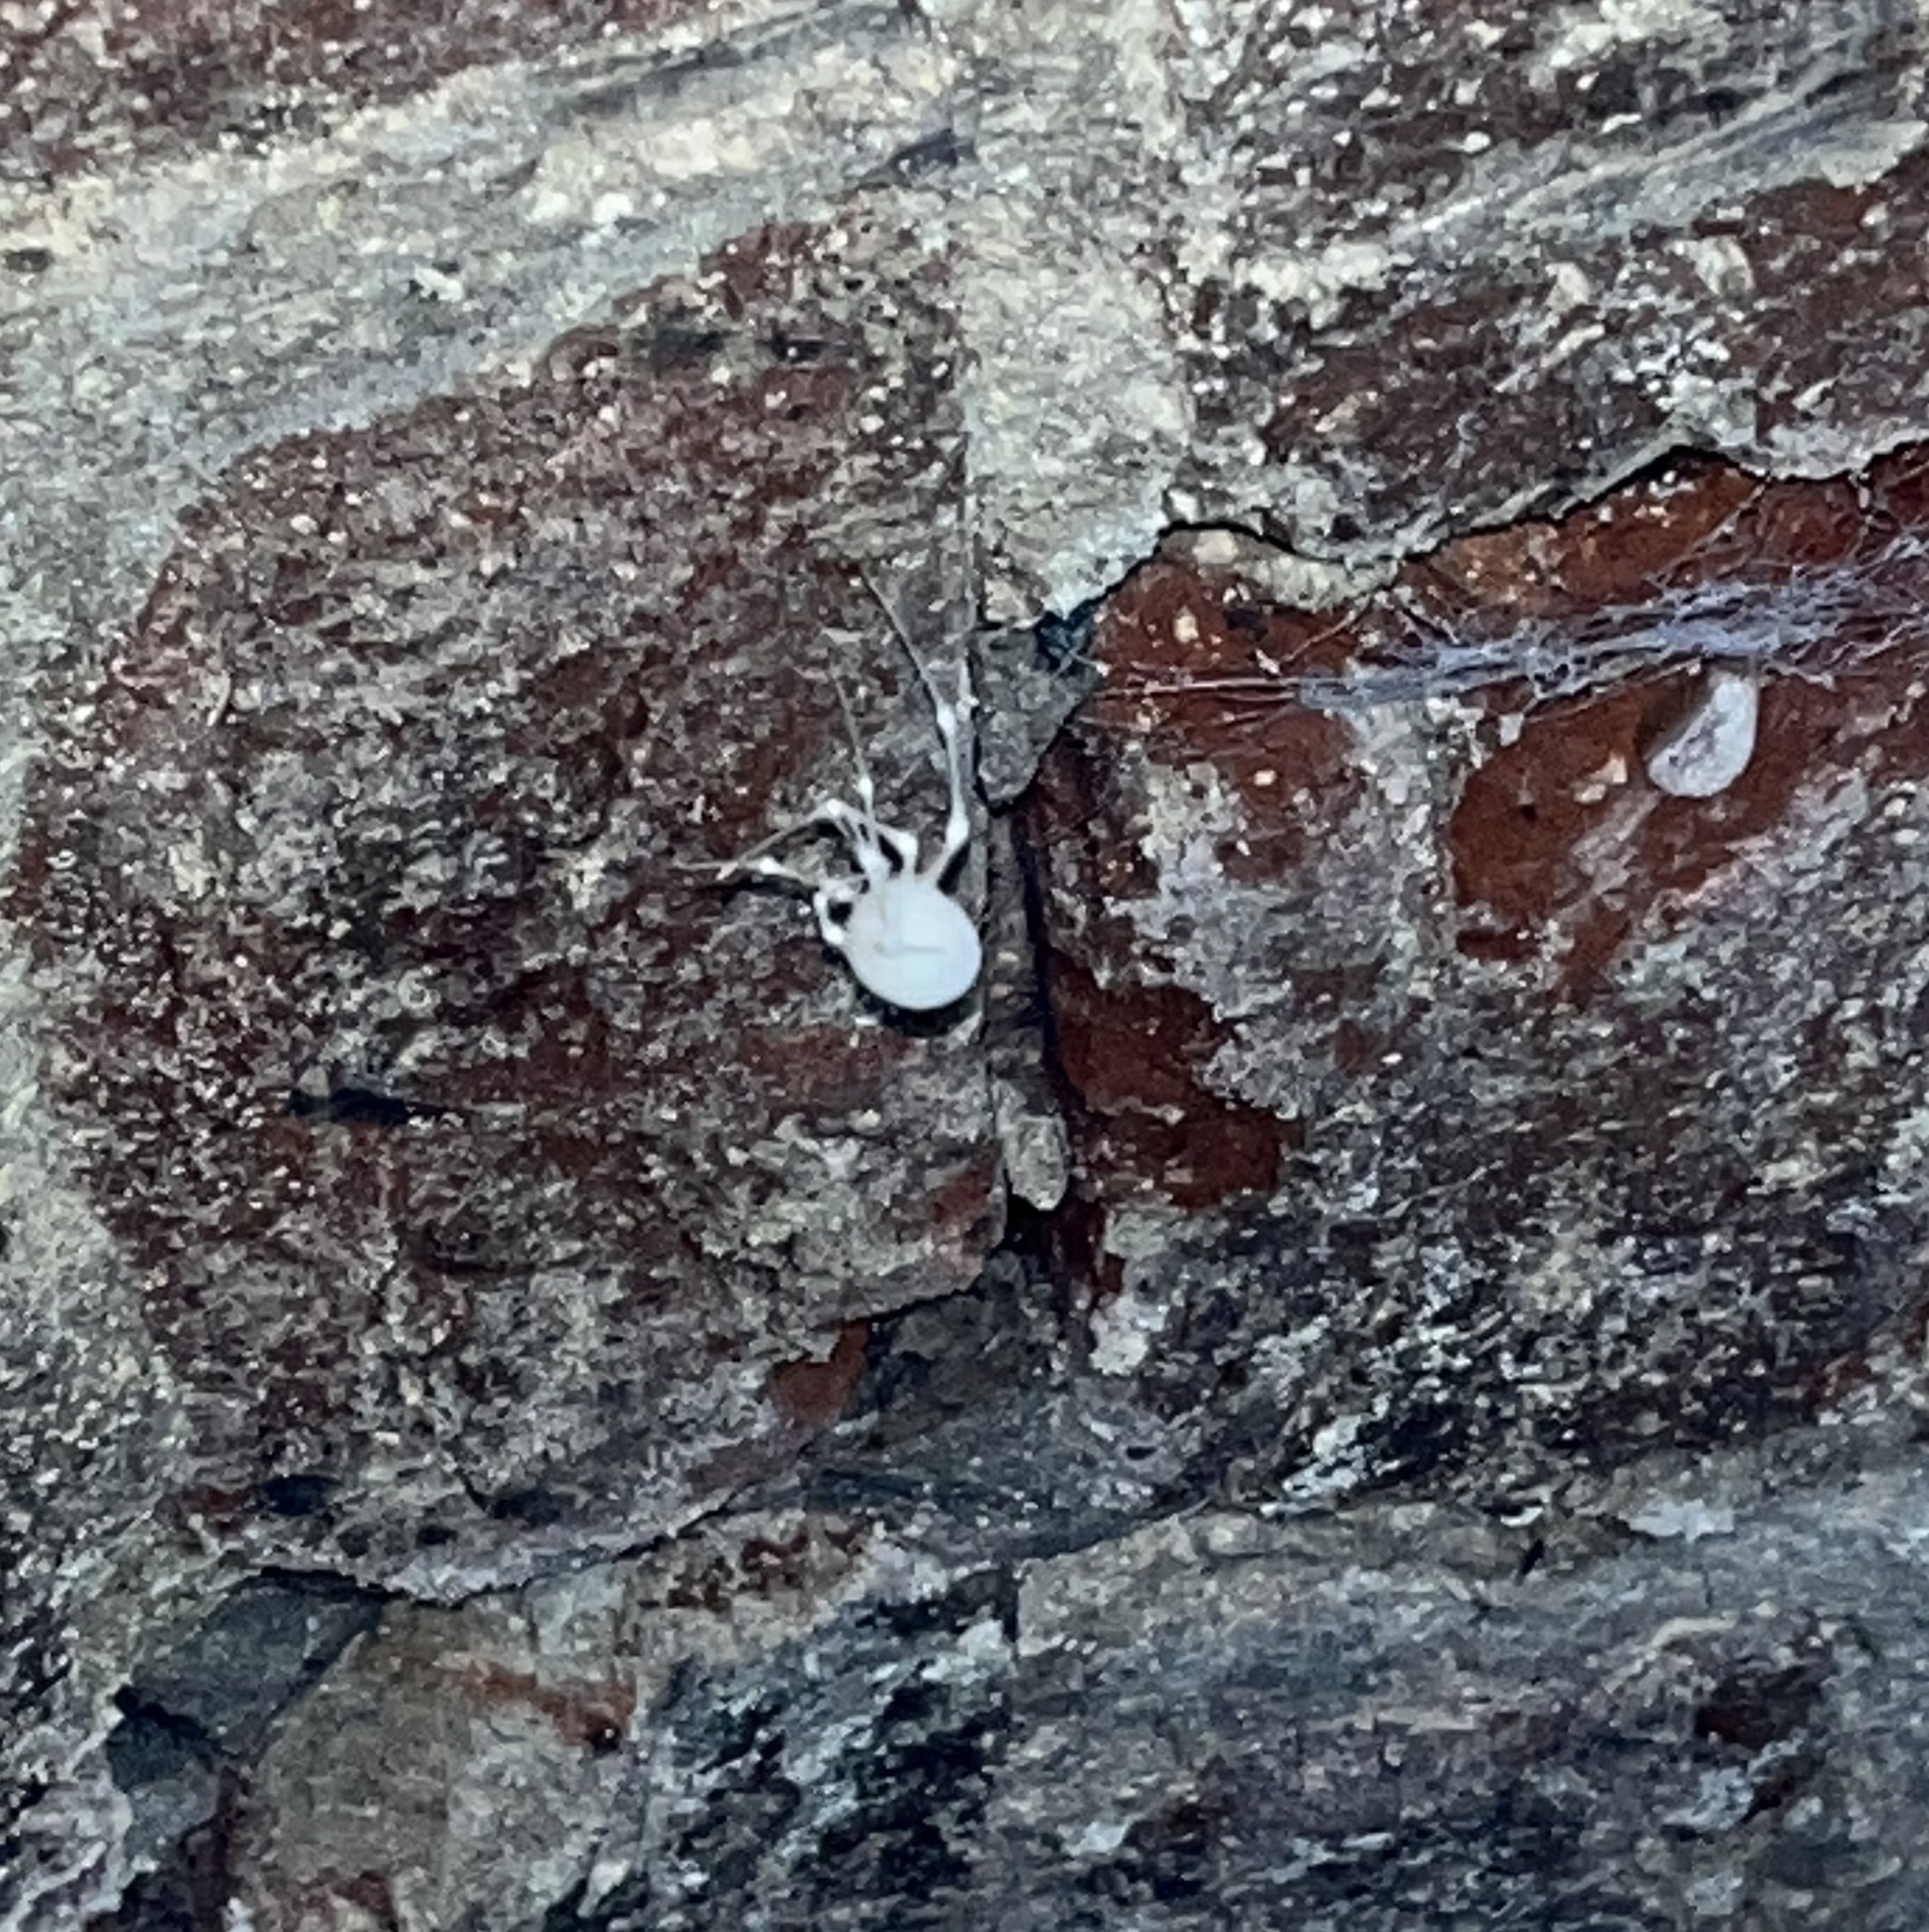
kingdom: Fungi
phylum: Ascomycota
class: Sordariomycetes
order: Hypocreales
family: Cordycipitaceae
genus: Lecanicillium
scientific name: Lecanicillium tenuipes
